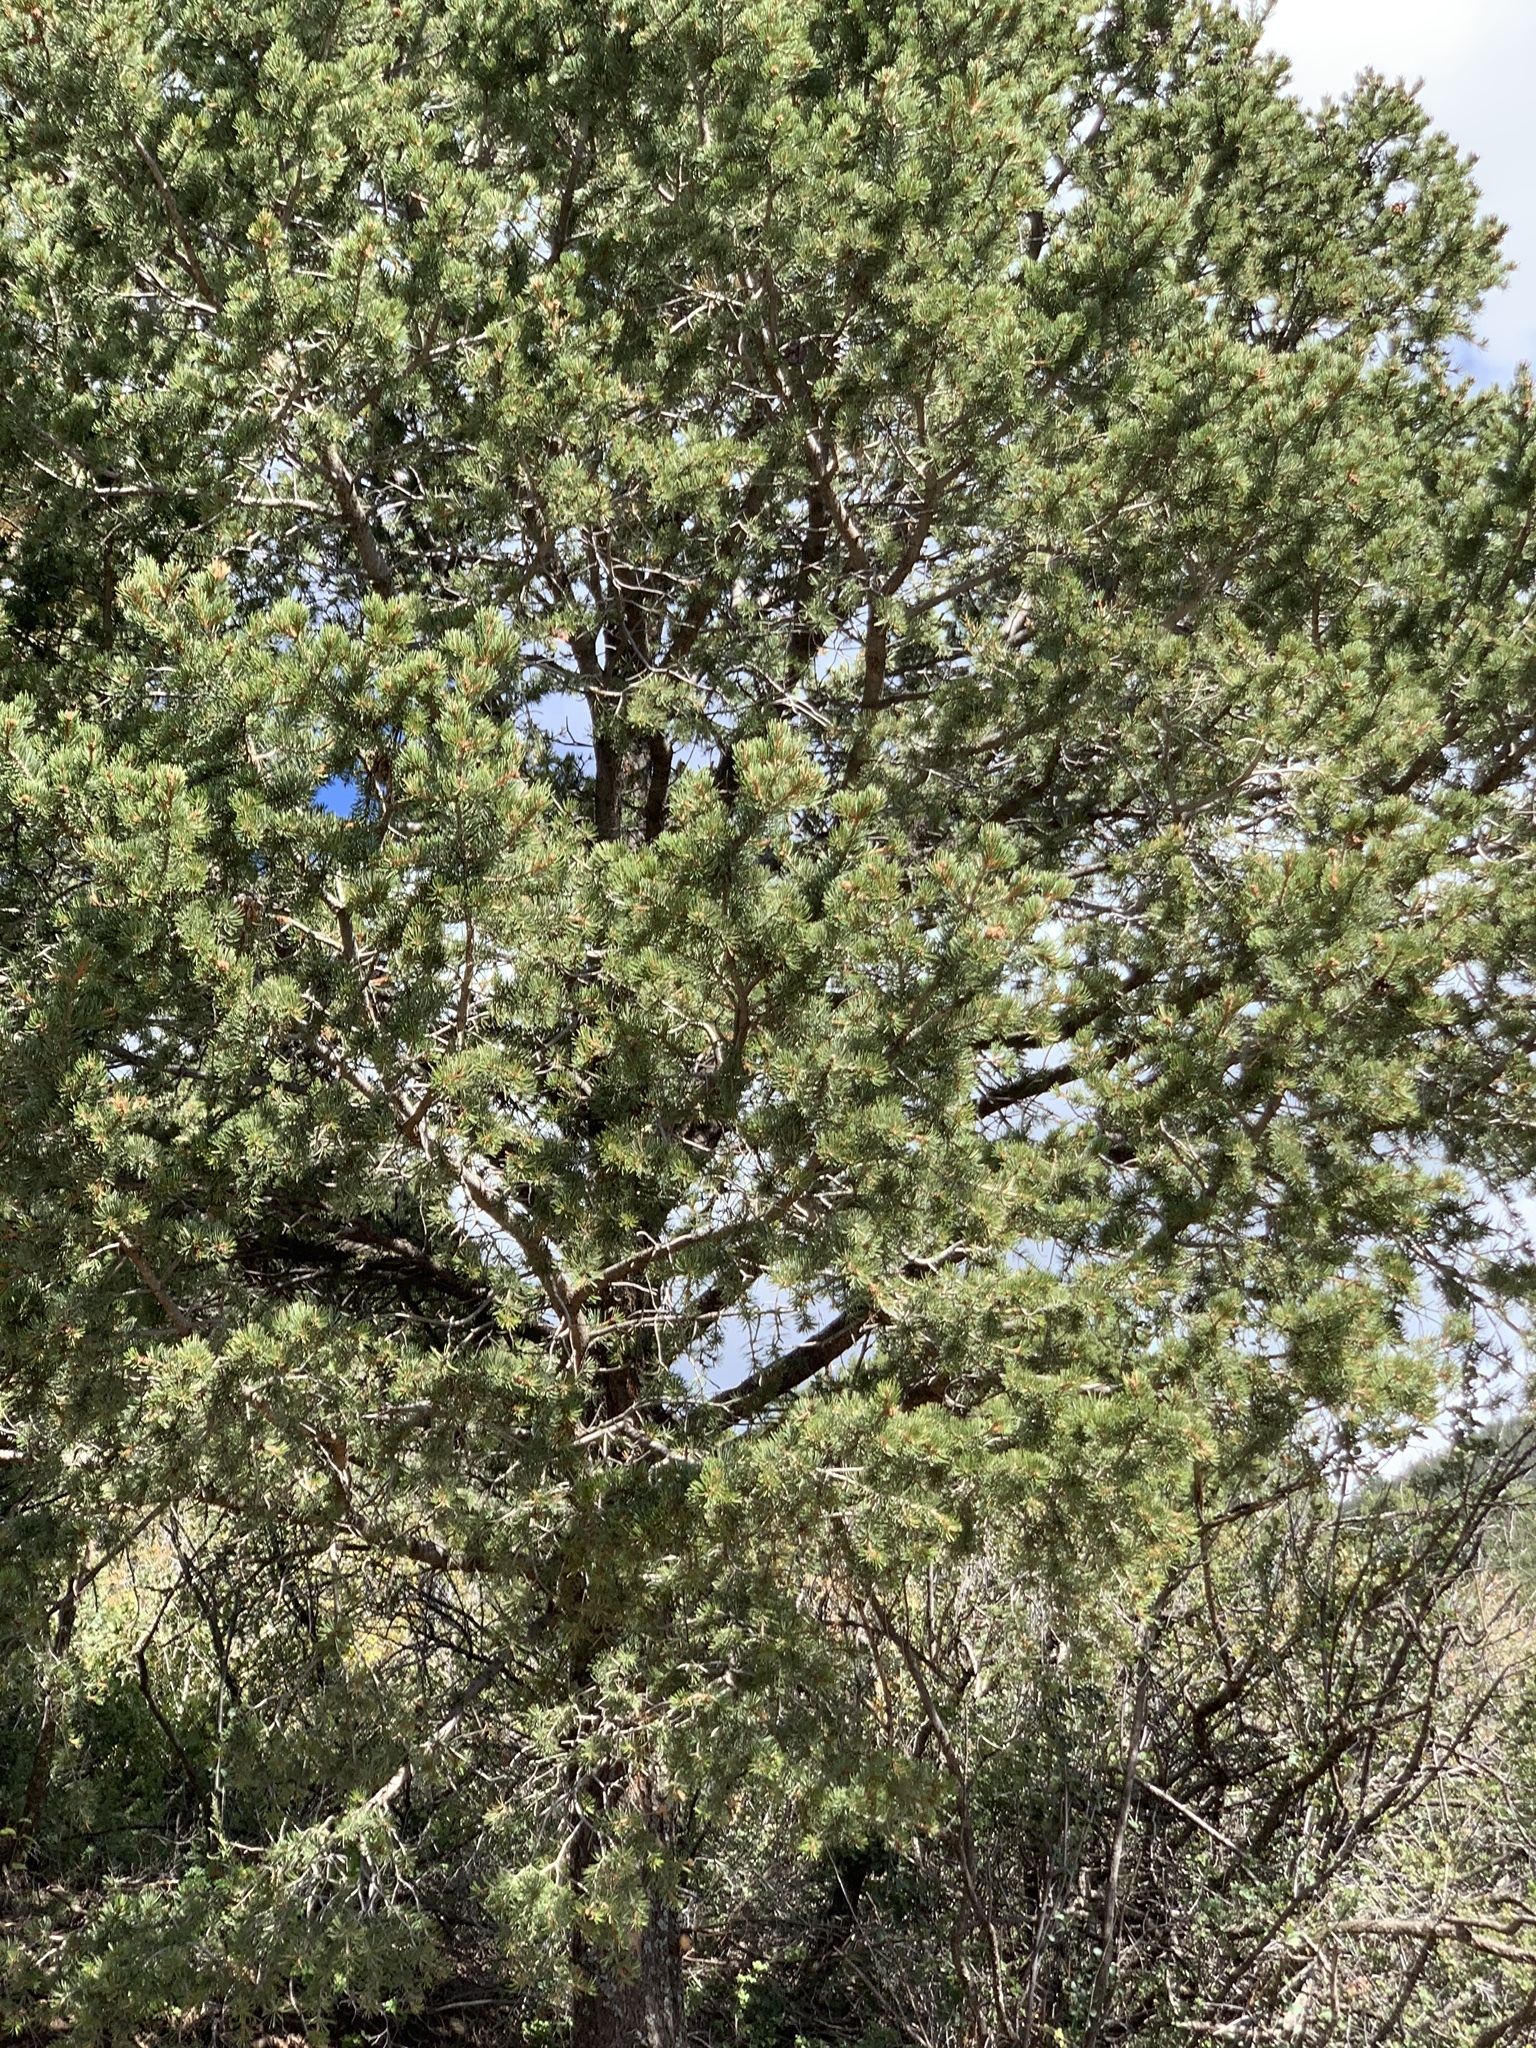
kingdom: Plantae
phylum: Tracheophyta
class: Pinopsida
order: Pinales
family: Pinaceae
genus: Pinus
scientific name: Pinus edulis
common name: Colorado pinyon
